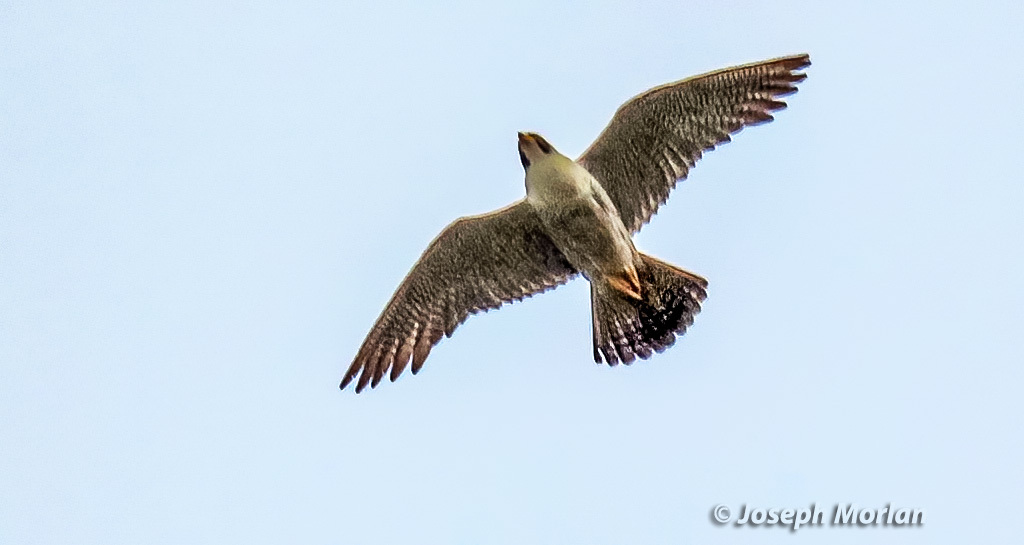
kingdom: Animalia
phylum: Chordata
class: Aves
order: Falconiformes
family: Falconidae
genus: Falco
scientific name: Falco peregrinus
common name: Peregrine falcon
